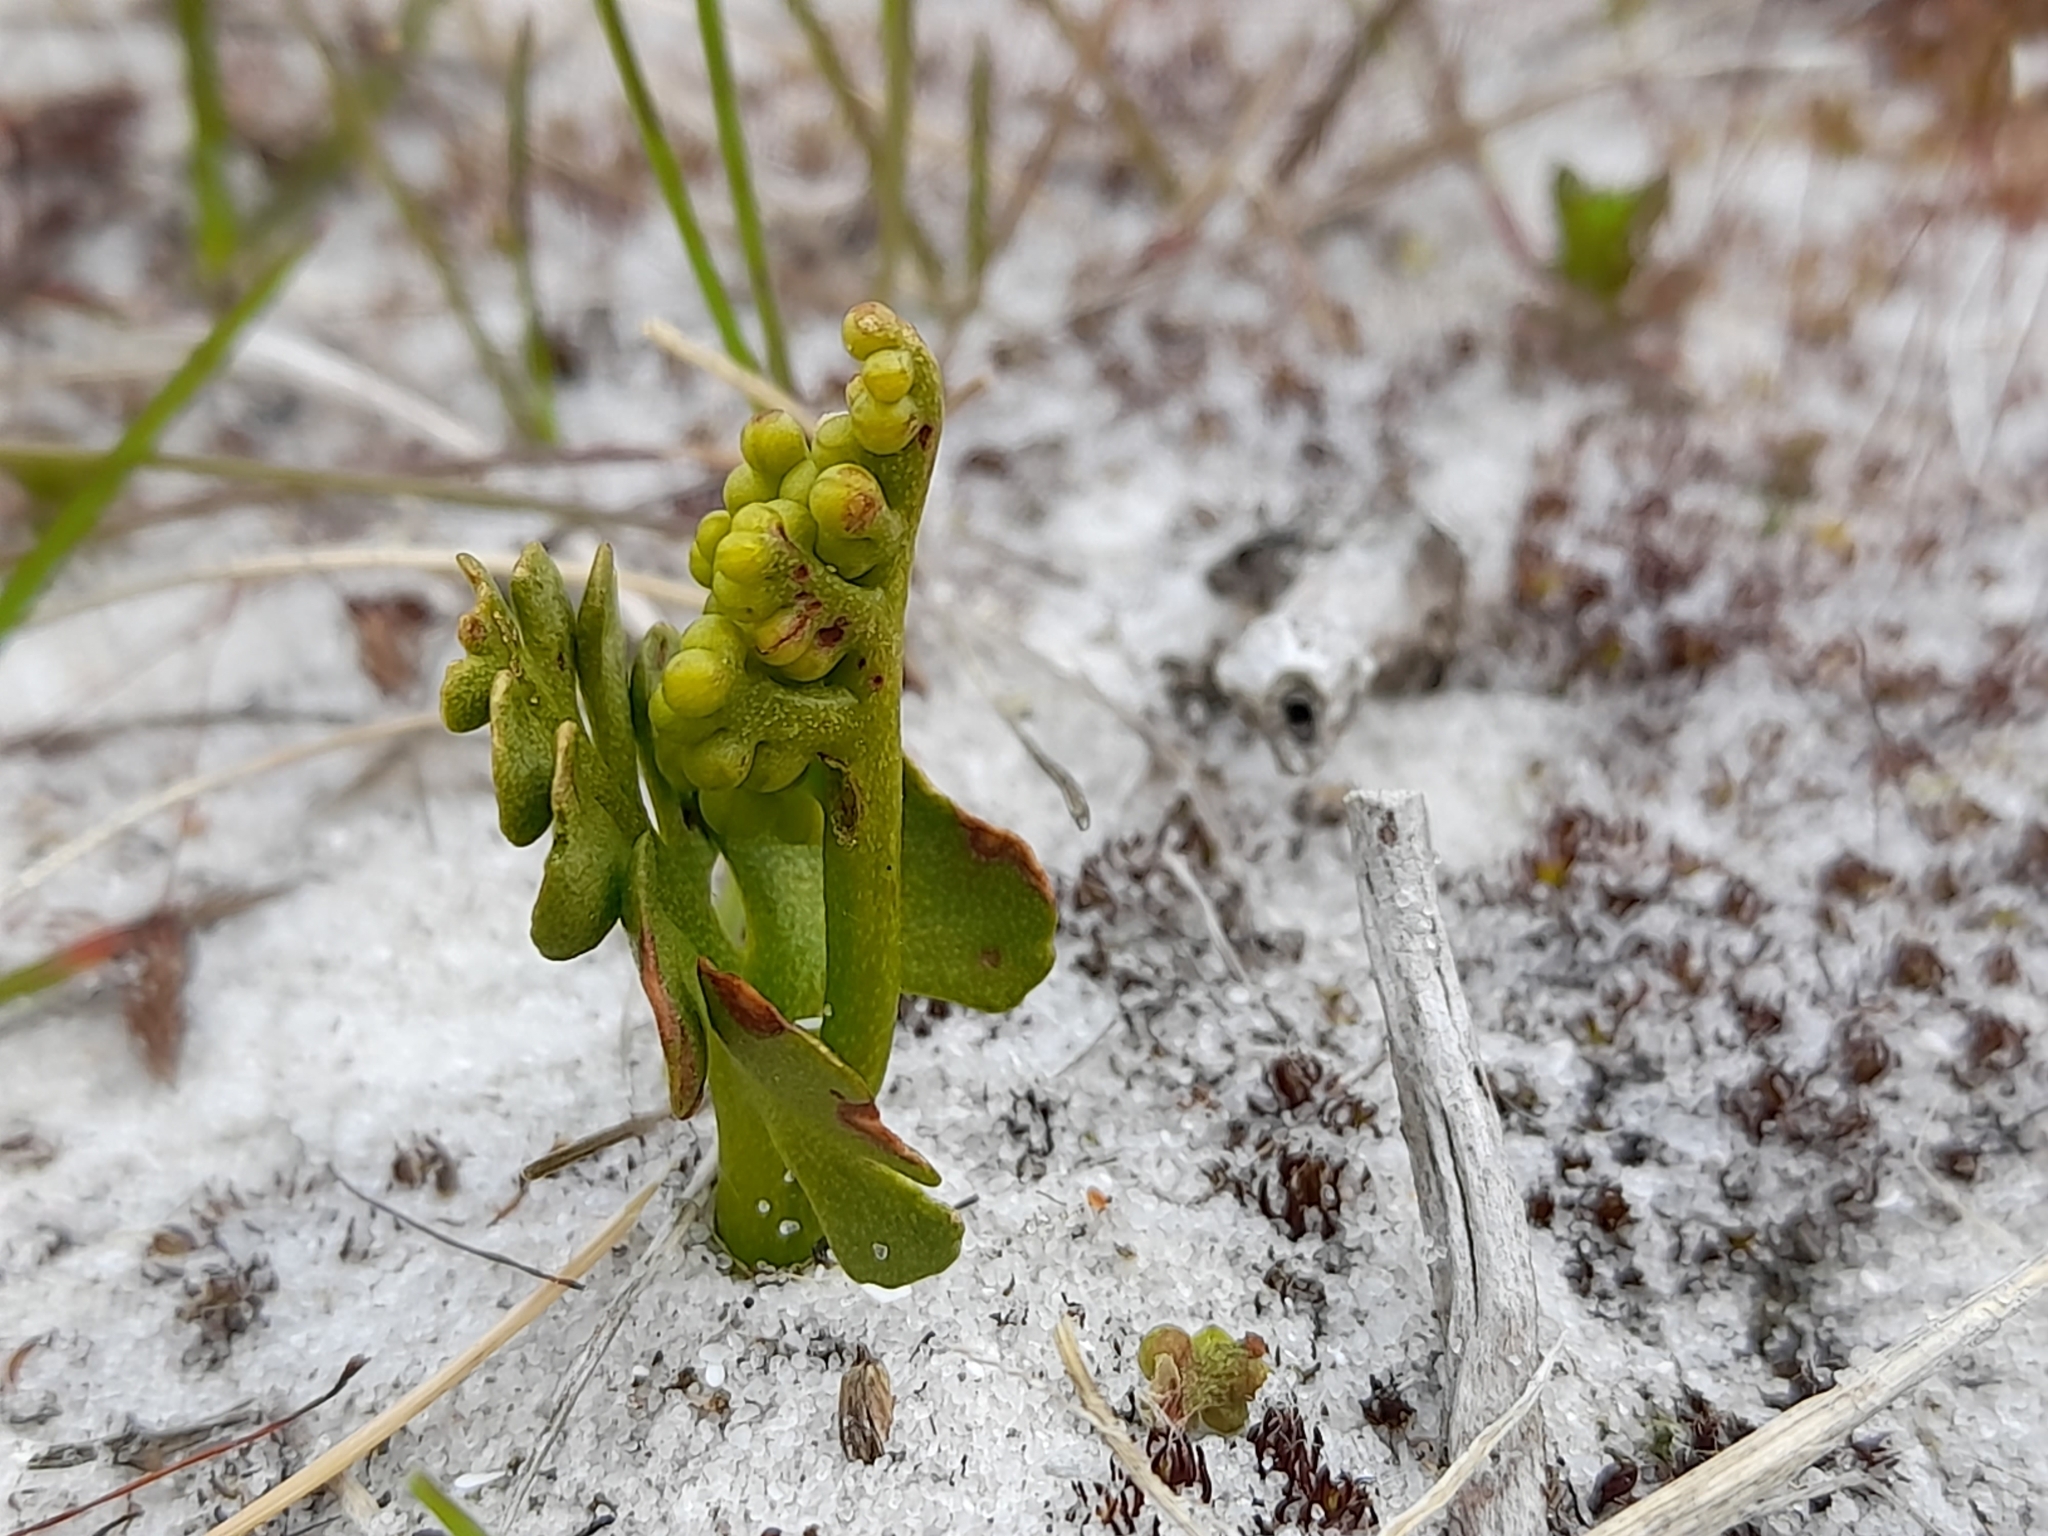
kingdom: Plantae
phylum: Tracheophyta
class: Polypodiopsida
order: Ophioglossales
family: Ophioglossaceae
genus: Botrychium
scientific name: Botrychium dusenii
